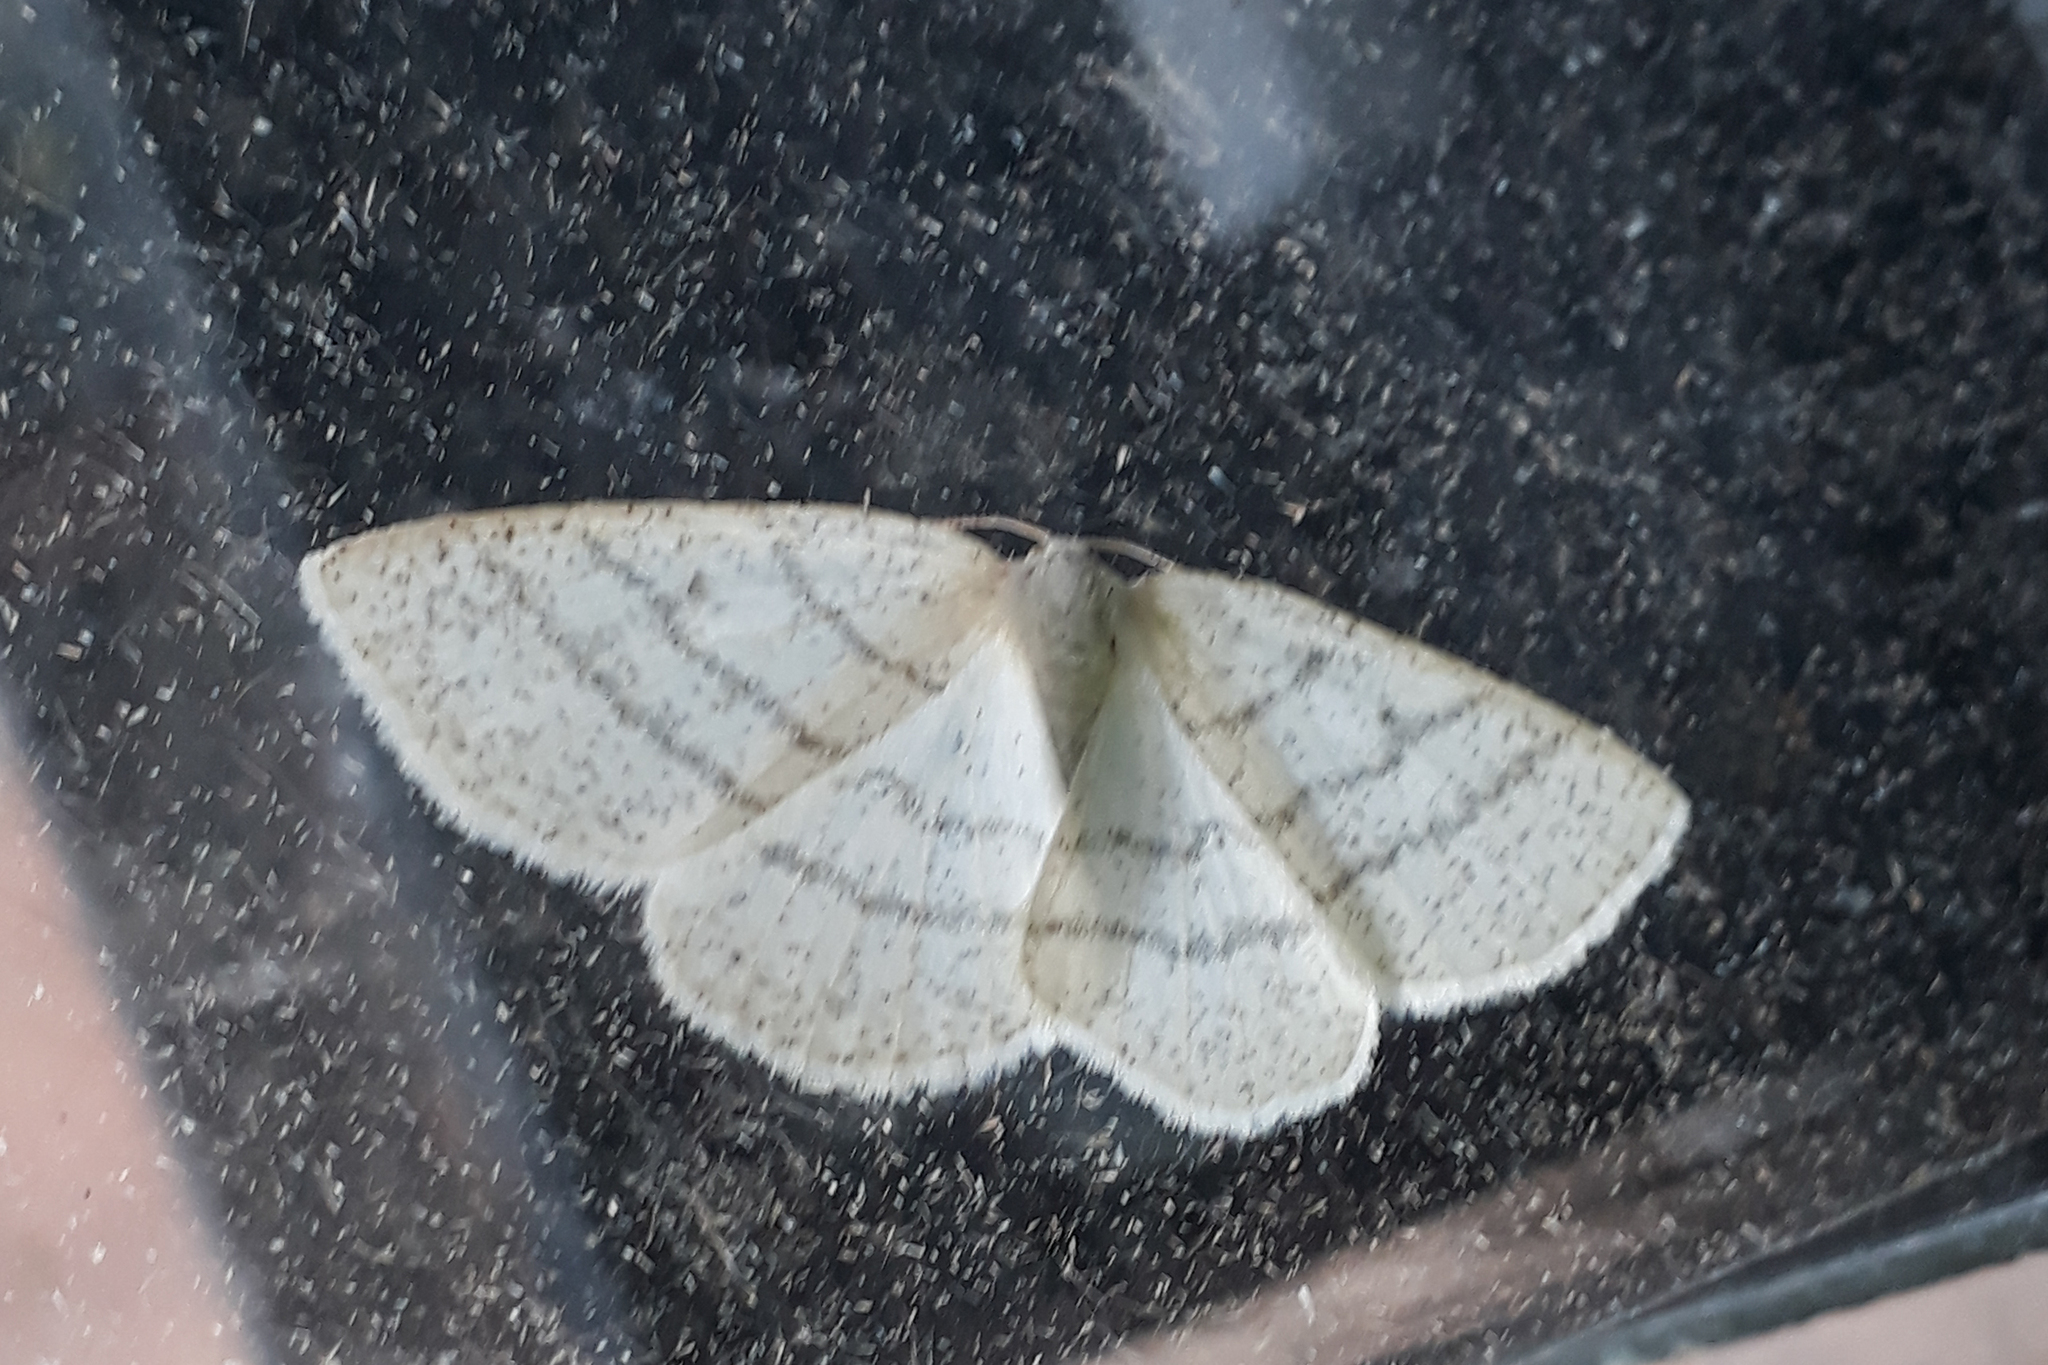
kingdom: Animalia
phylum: Arthropoda
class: Insecta
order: Lepidoptera
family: Geometridae
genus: Cabera
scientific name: Cabera pusaria
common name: Common white wave
